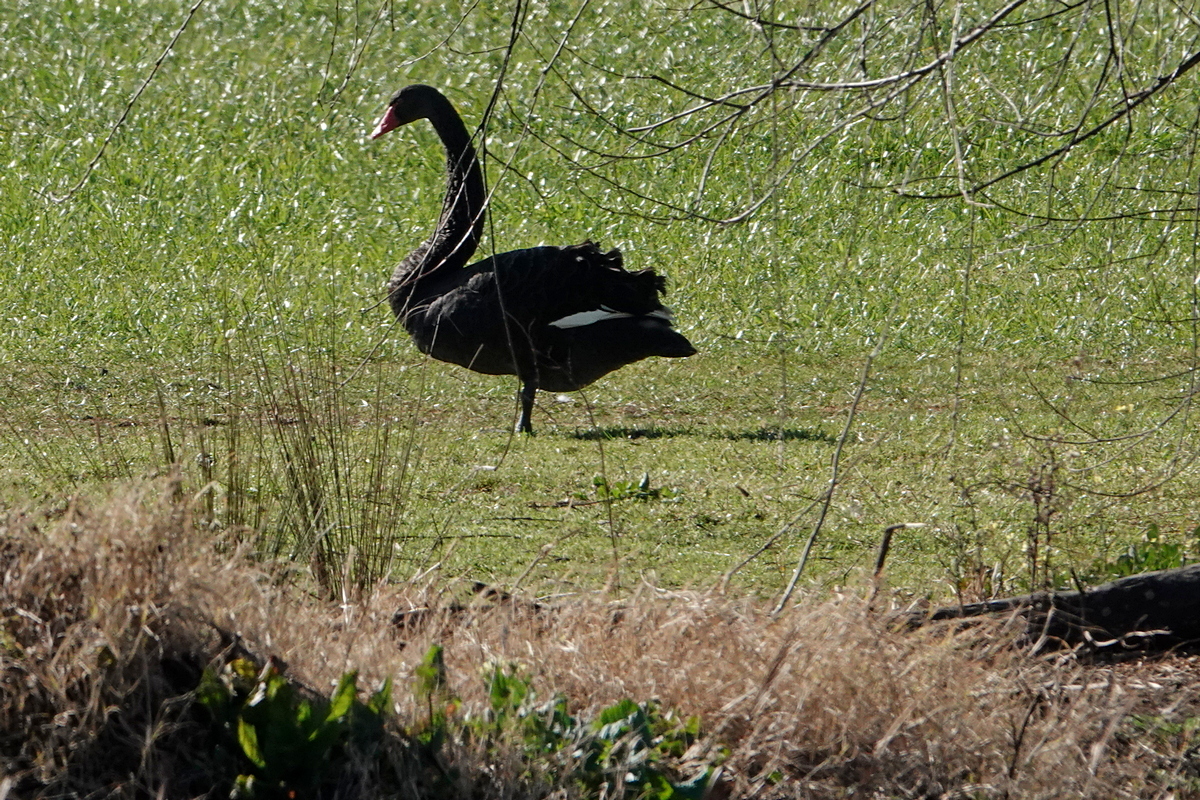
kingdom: Animalia
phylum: Chordata
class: Aves
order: Anseriformes
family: Anatidae
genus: Cygnus
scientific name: Cygnus atratus
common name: Black swan
